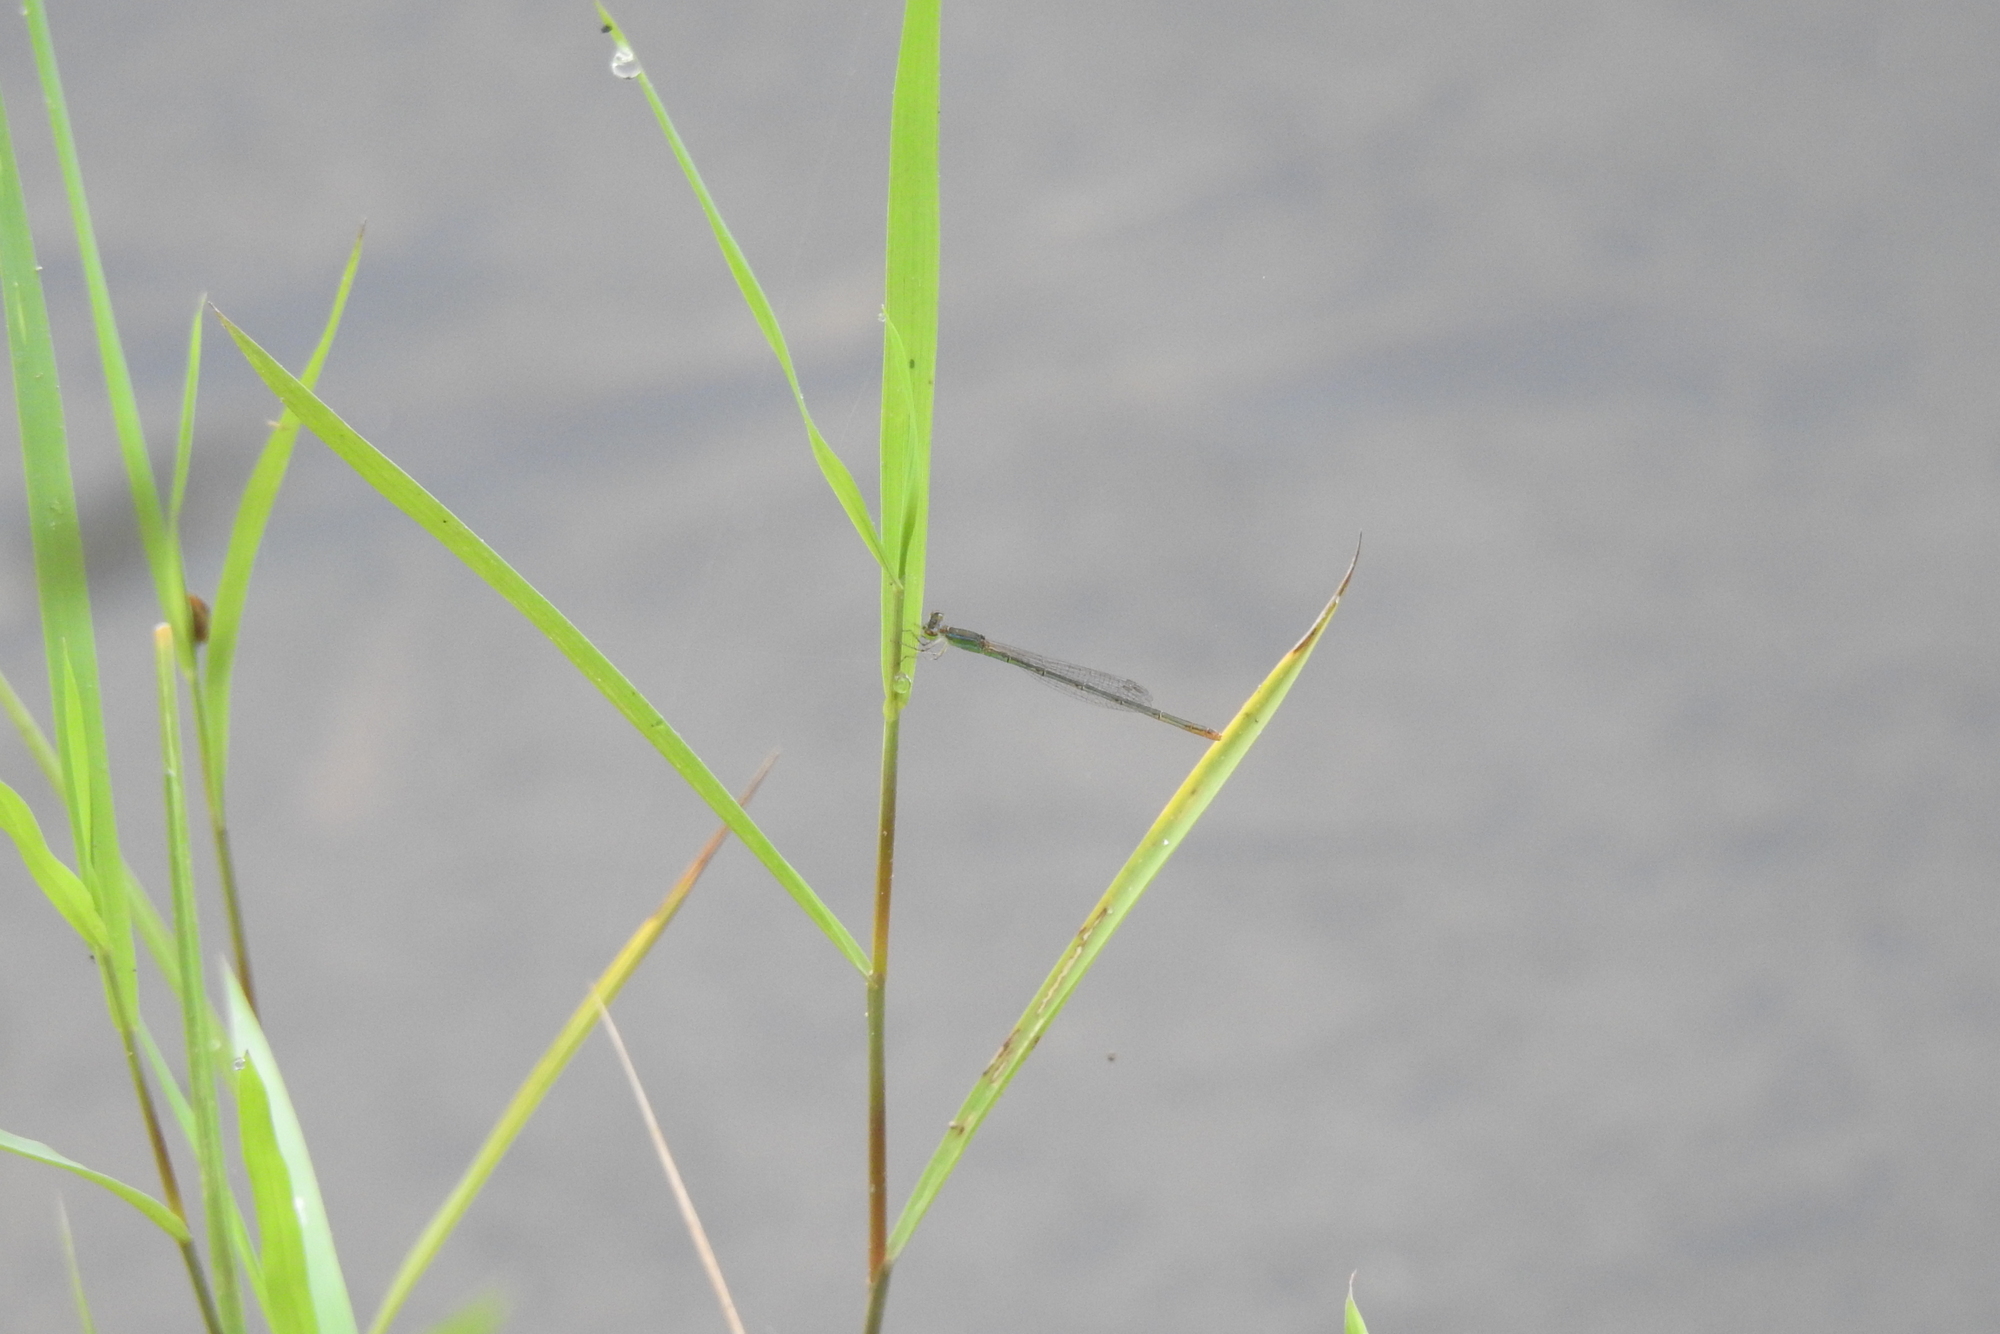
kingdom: Animalia
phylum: Arthropoda
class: Insecta
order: Odonata
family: Coenagrionidae
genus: Agriocnemis
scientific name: Agriocnemis pygmaea
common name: Pygmy wisp
